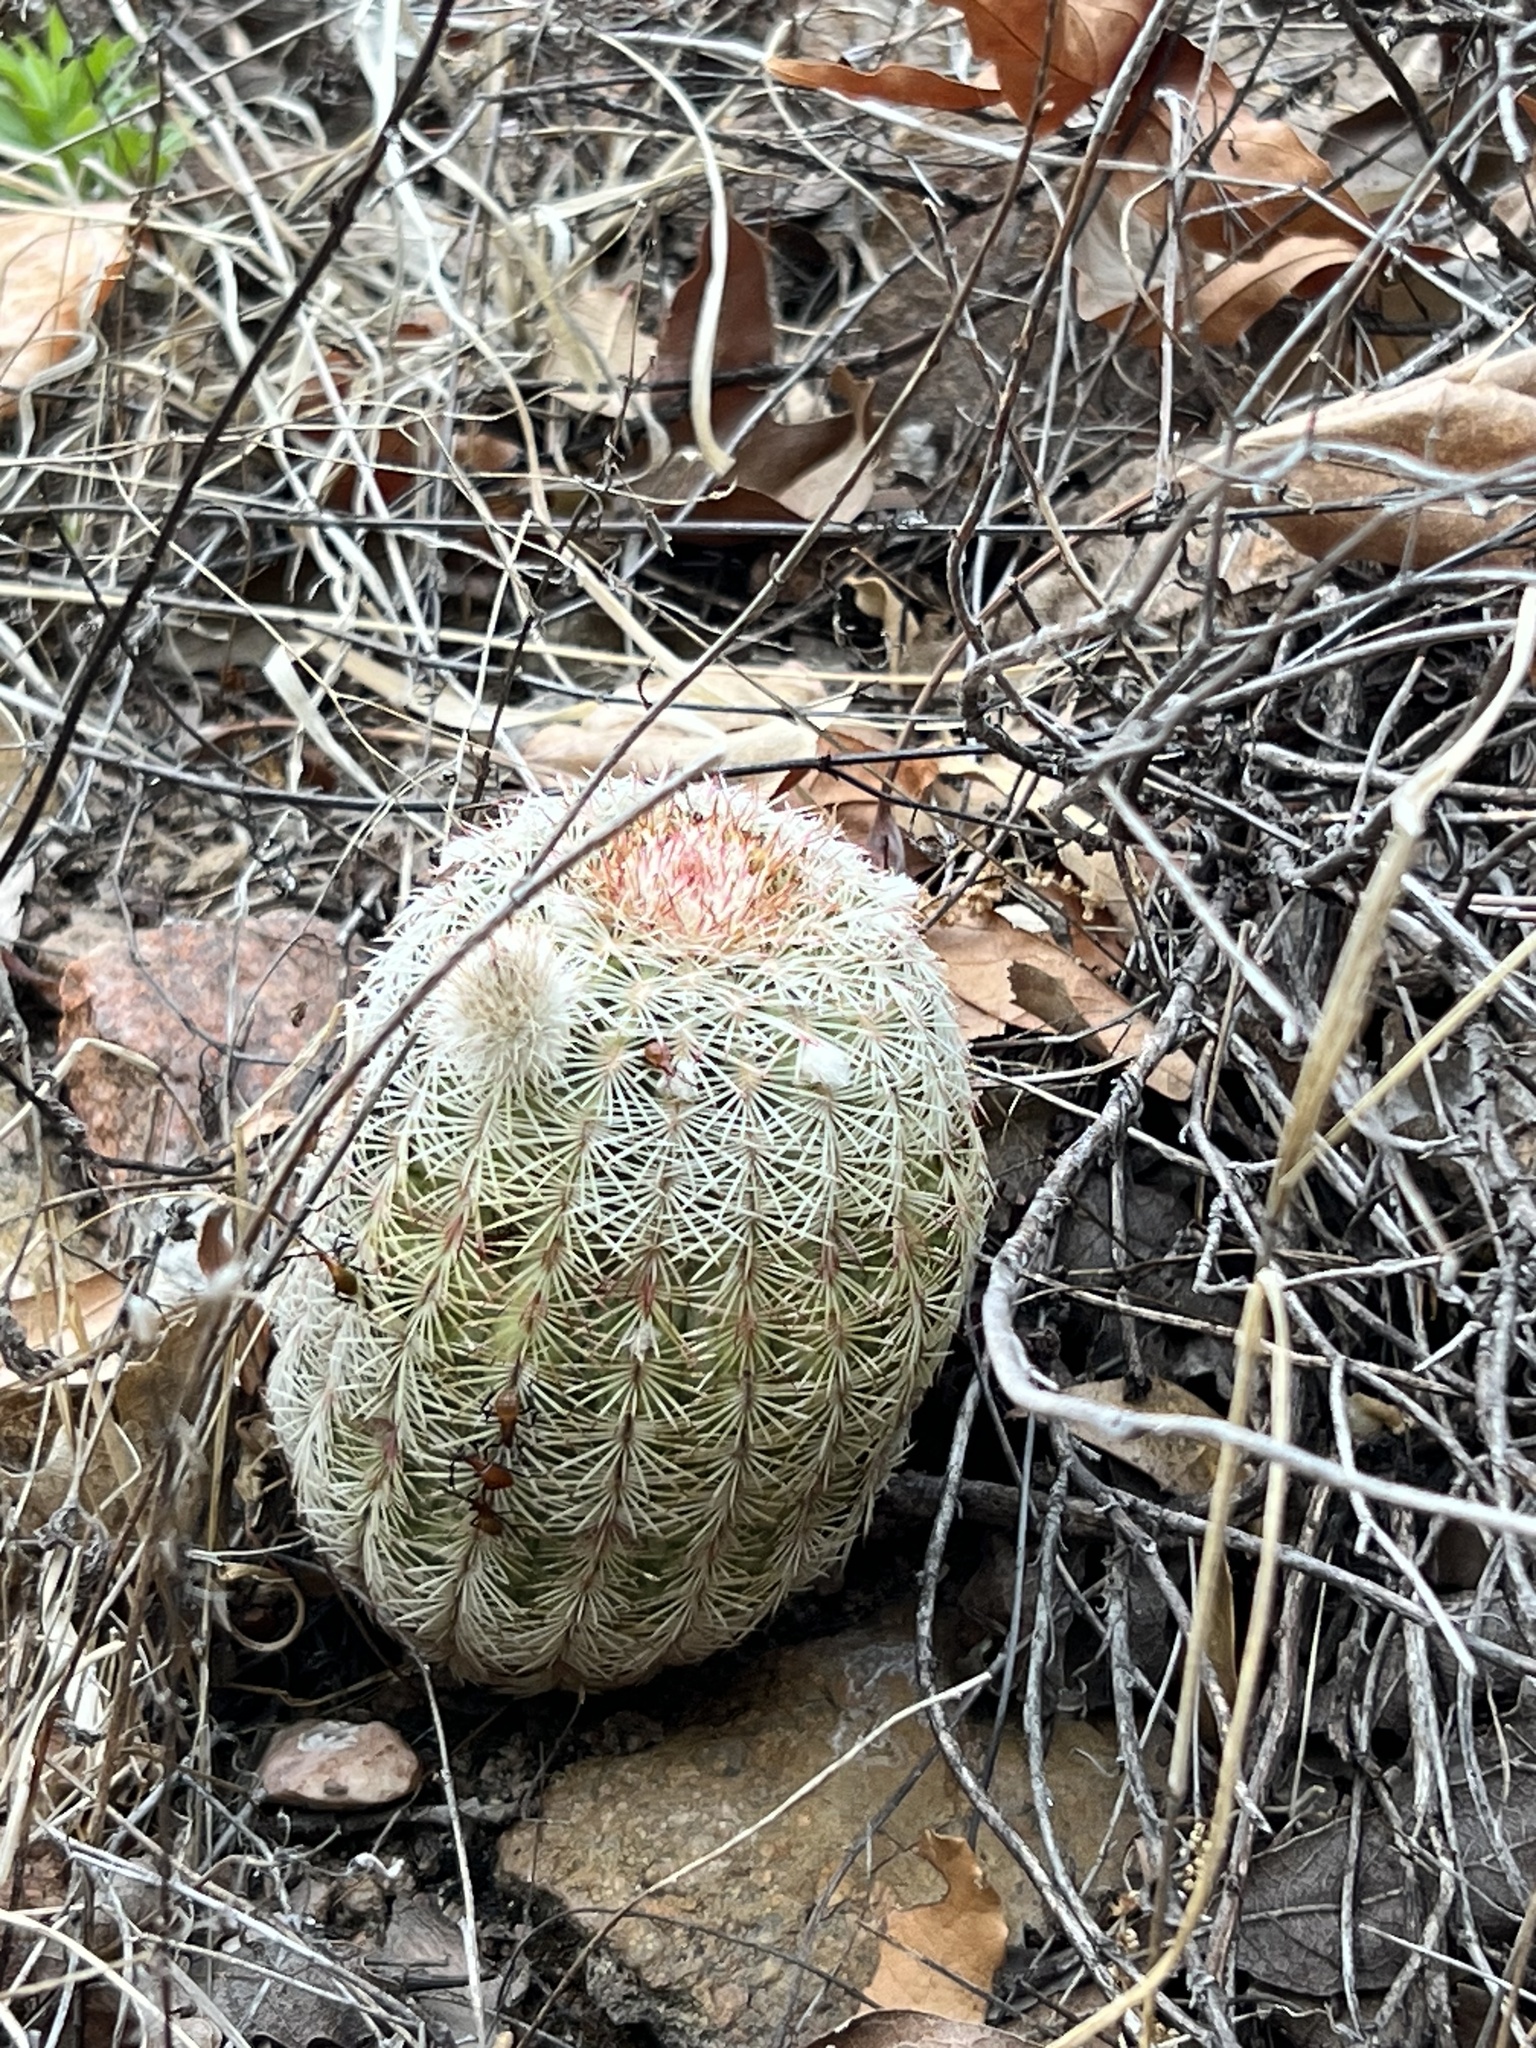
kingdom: Plantae
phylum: Tracheophyta
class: Magnoliopsida
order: Caryophyllales
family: Cactaceae
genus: Echinocereus
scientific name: Echinocereus rigidissimus
